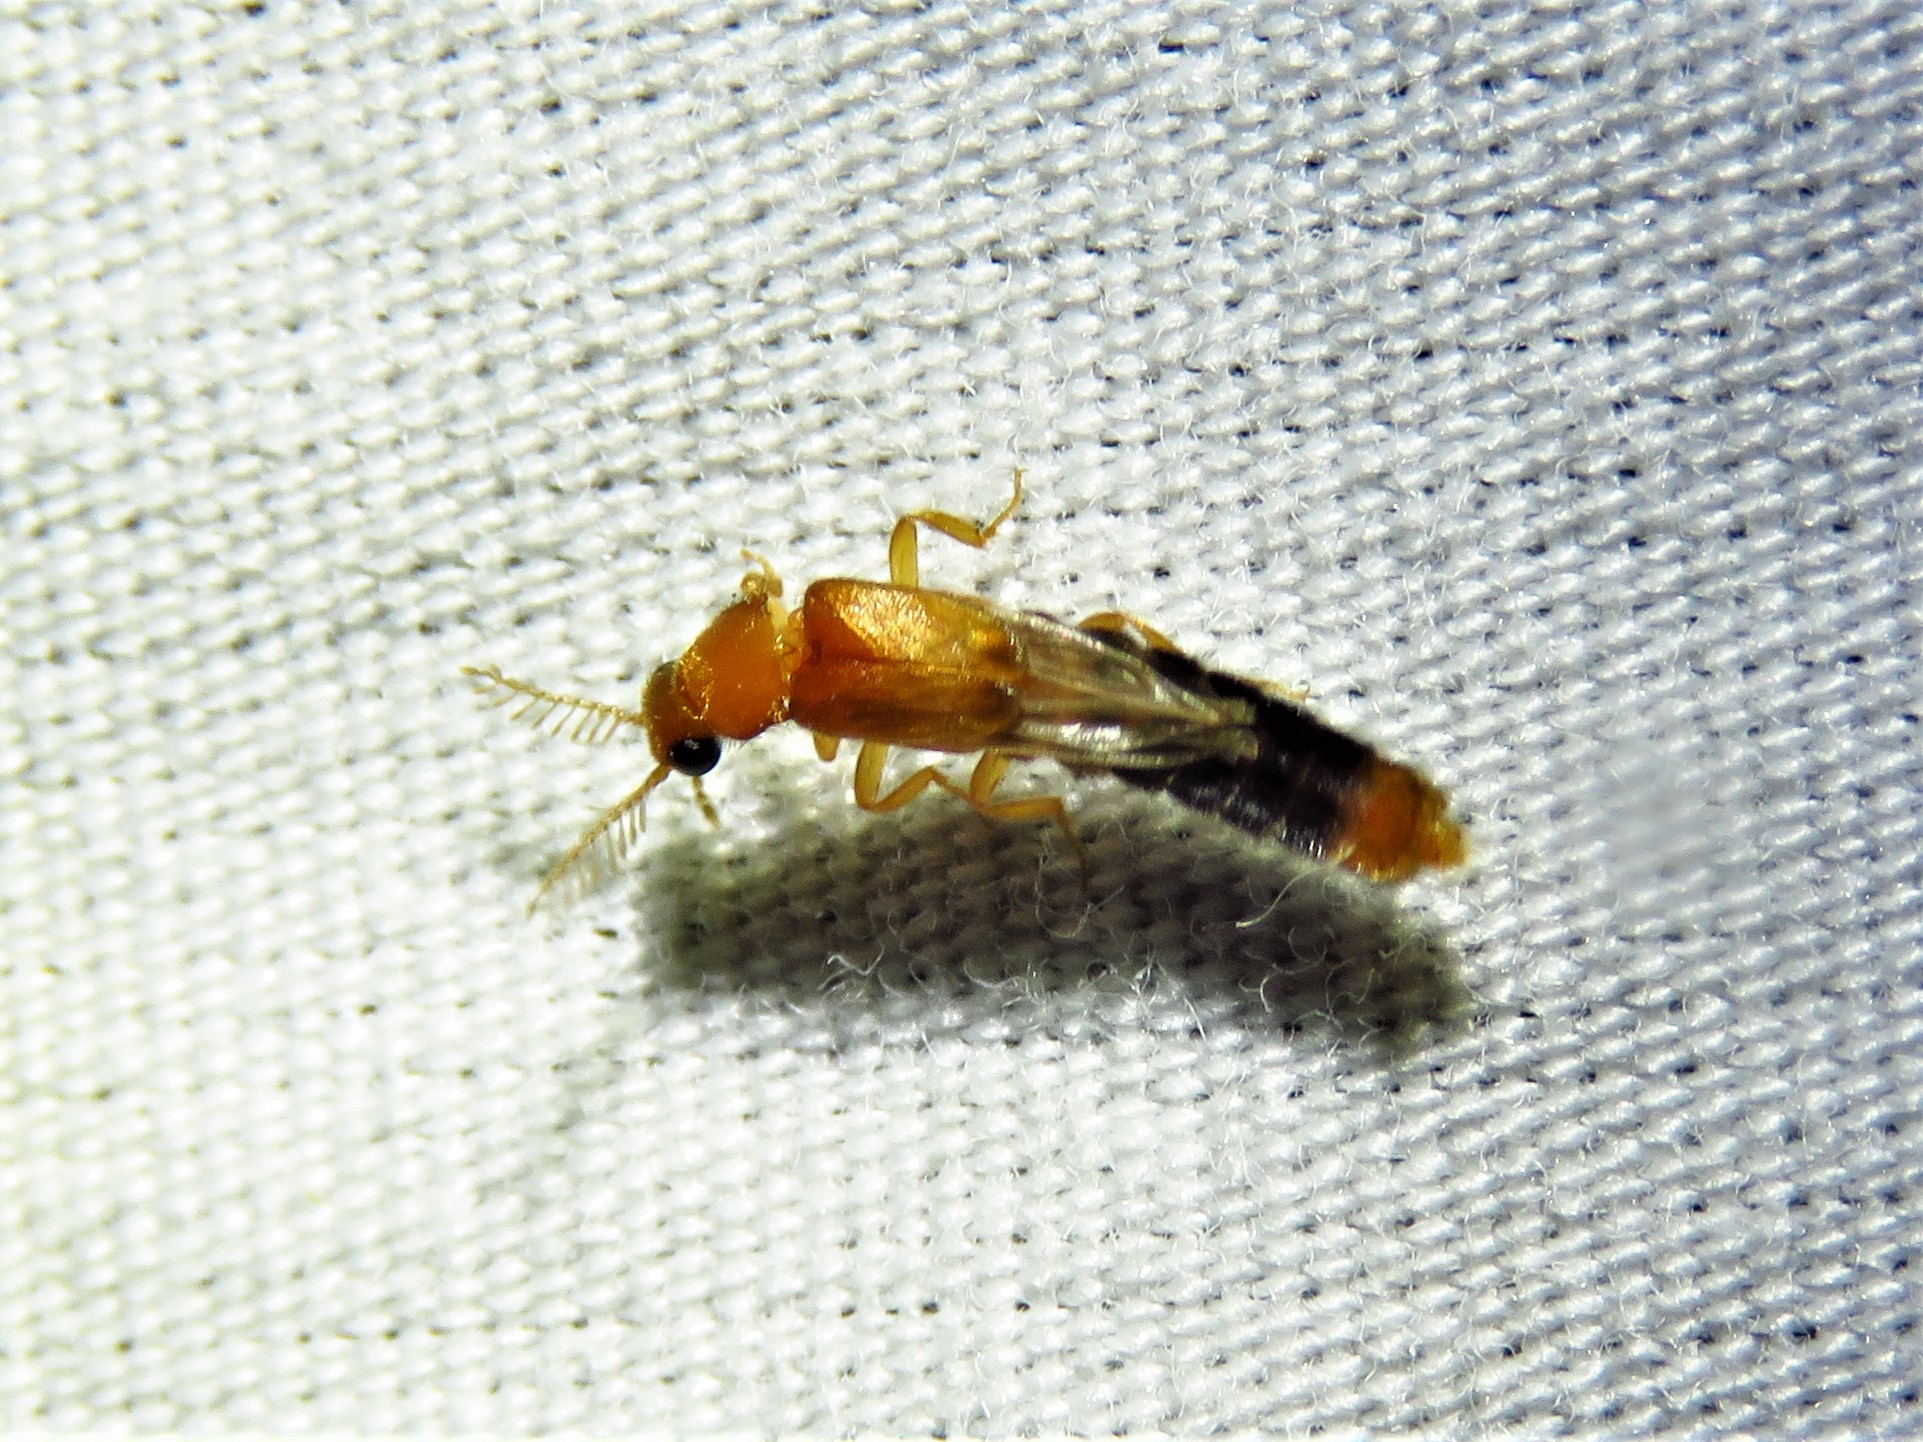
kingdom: Animalia
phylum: Arthropoda
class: Insecta
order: Coleoptera
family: Phengodidae
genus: Distremocephalus
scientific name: Distremocephalus texanus
